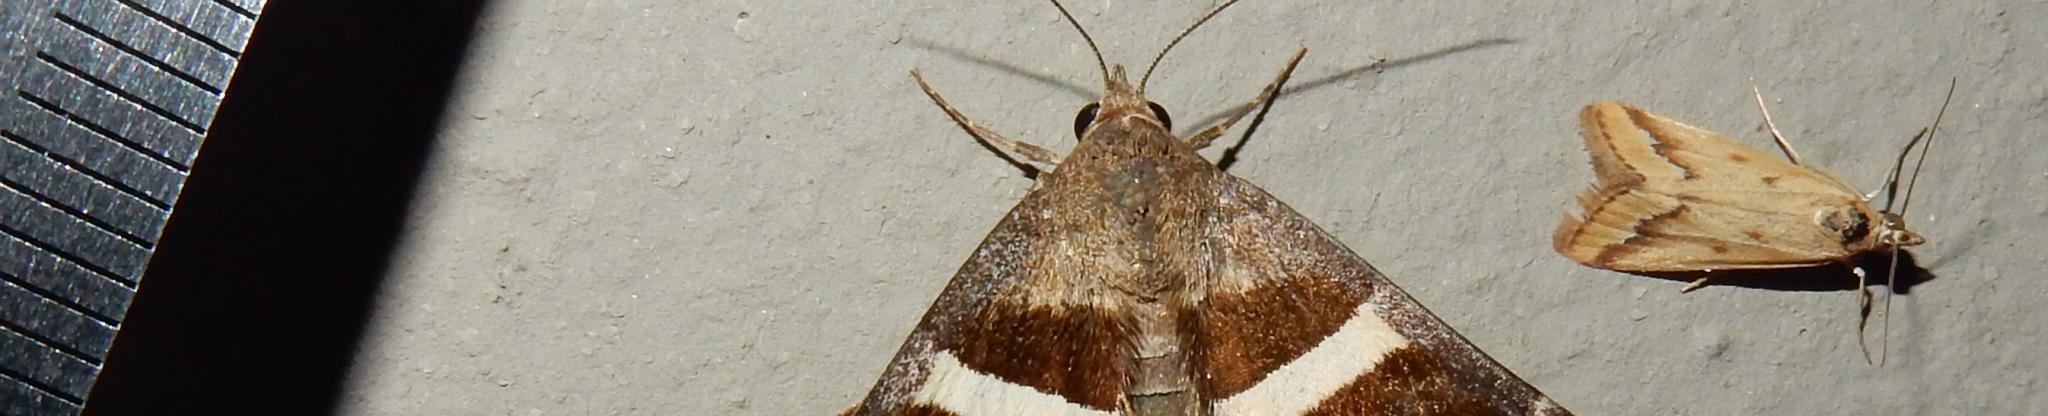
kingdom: Animalia
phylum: Arthropoda
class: Insecta
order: Lepidoptera
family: Crambidae
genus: Achyra
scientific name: Achyra coelatalis
